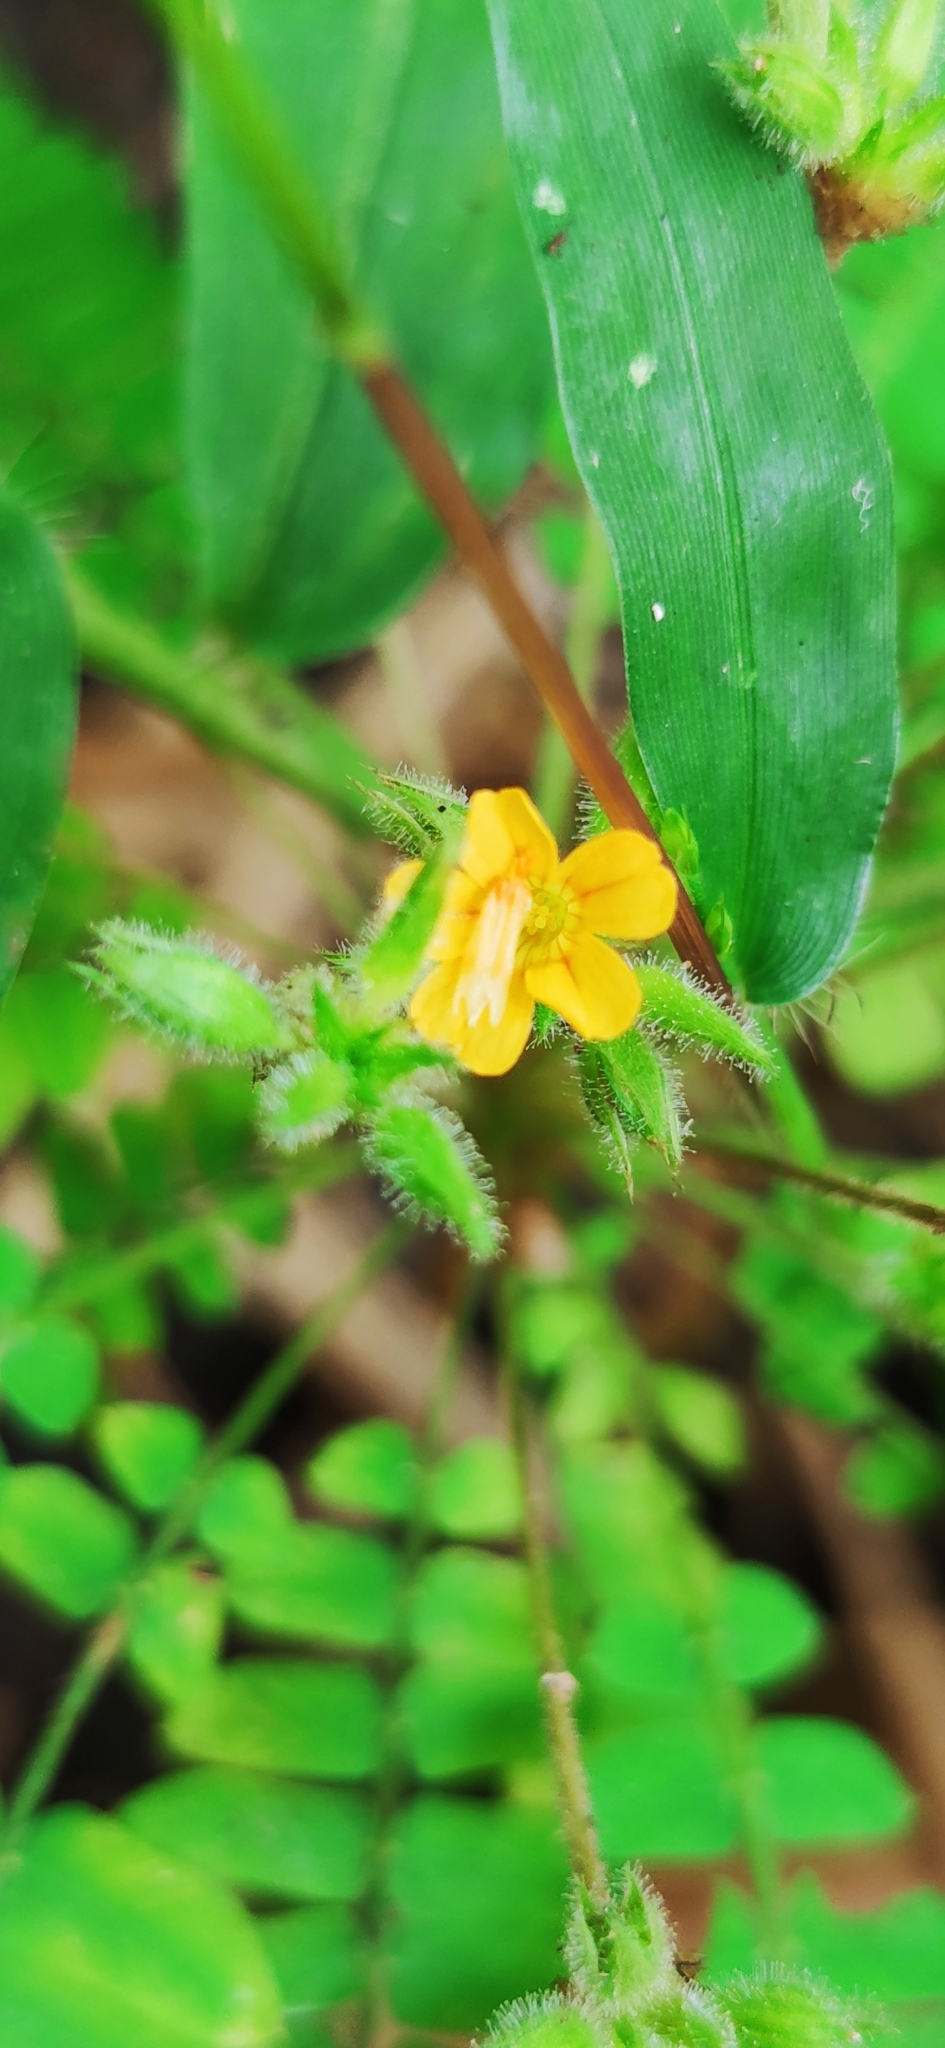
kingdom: Plantae
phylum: Tracheophyta
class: Magnoliopsida
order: Oxalidales
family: Oxalidaceae
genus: Biophytum
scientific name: Biophytum sensitivum
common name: Lifeplant
